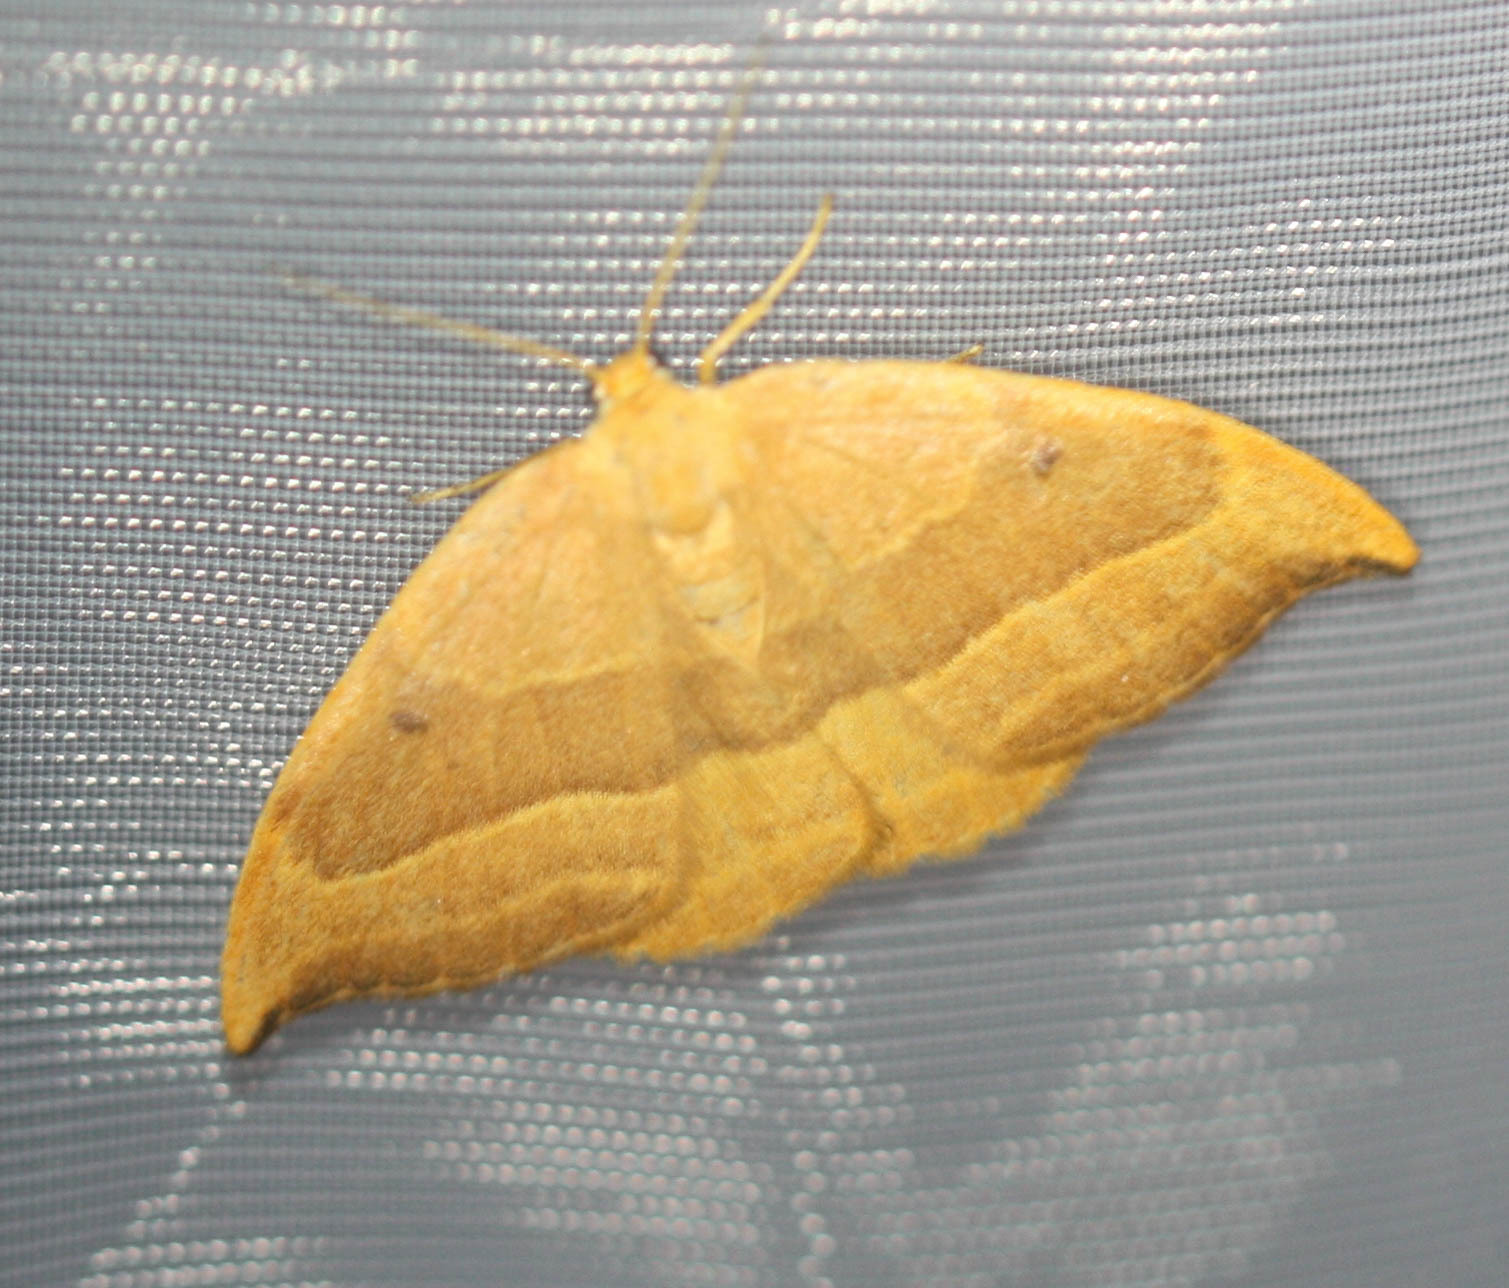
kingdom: Animalia
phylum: Arthropoda
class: Insecta
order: Lepidoptera
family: Drepanidae
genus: Watsonalla
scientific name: Watsonalla cultraria
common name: Barred hook-tip
